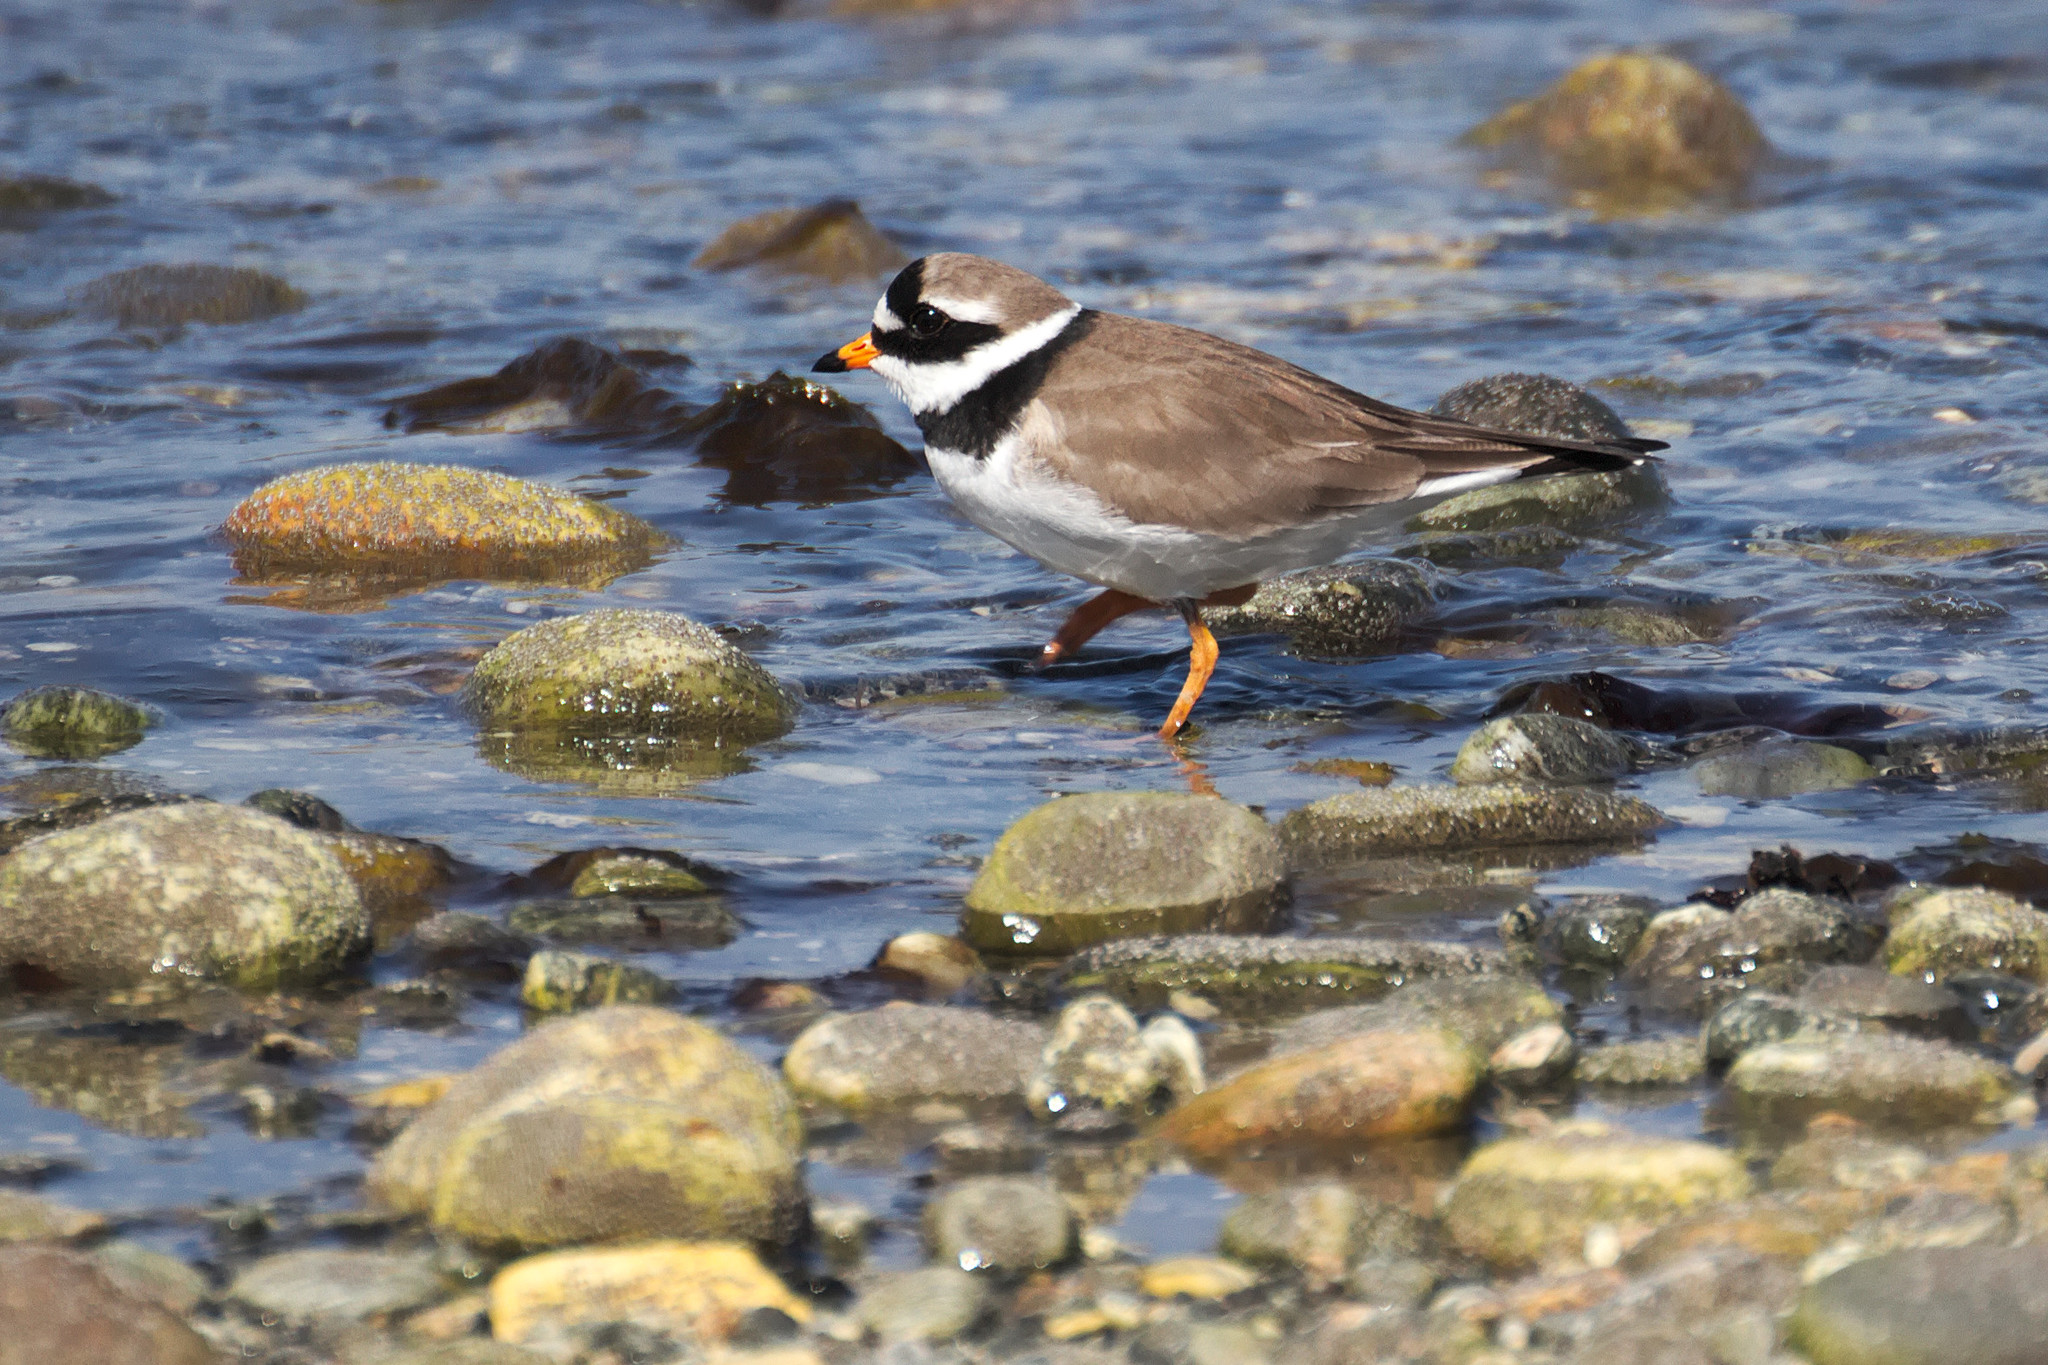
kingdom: Animalia
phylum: Chordata
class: Aves
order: Charadriiformes
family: Charadriidae
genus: Charadrius
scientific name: Charadrius hiaticula
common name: Common ringed plover
